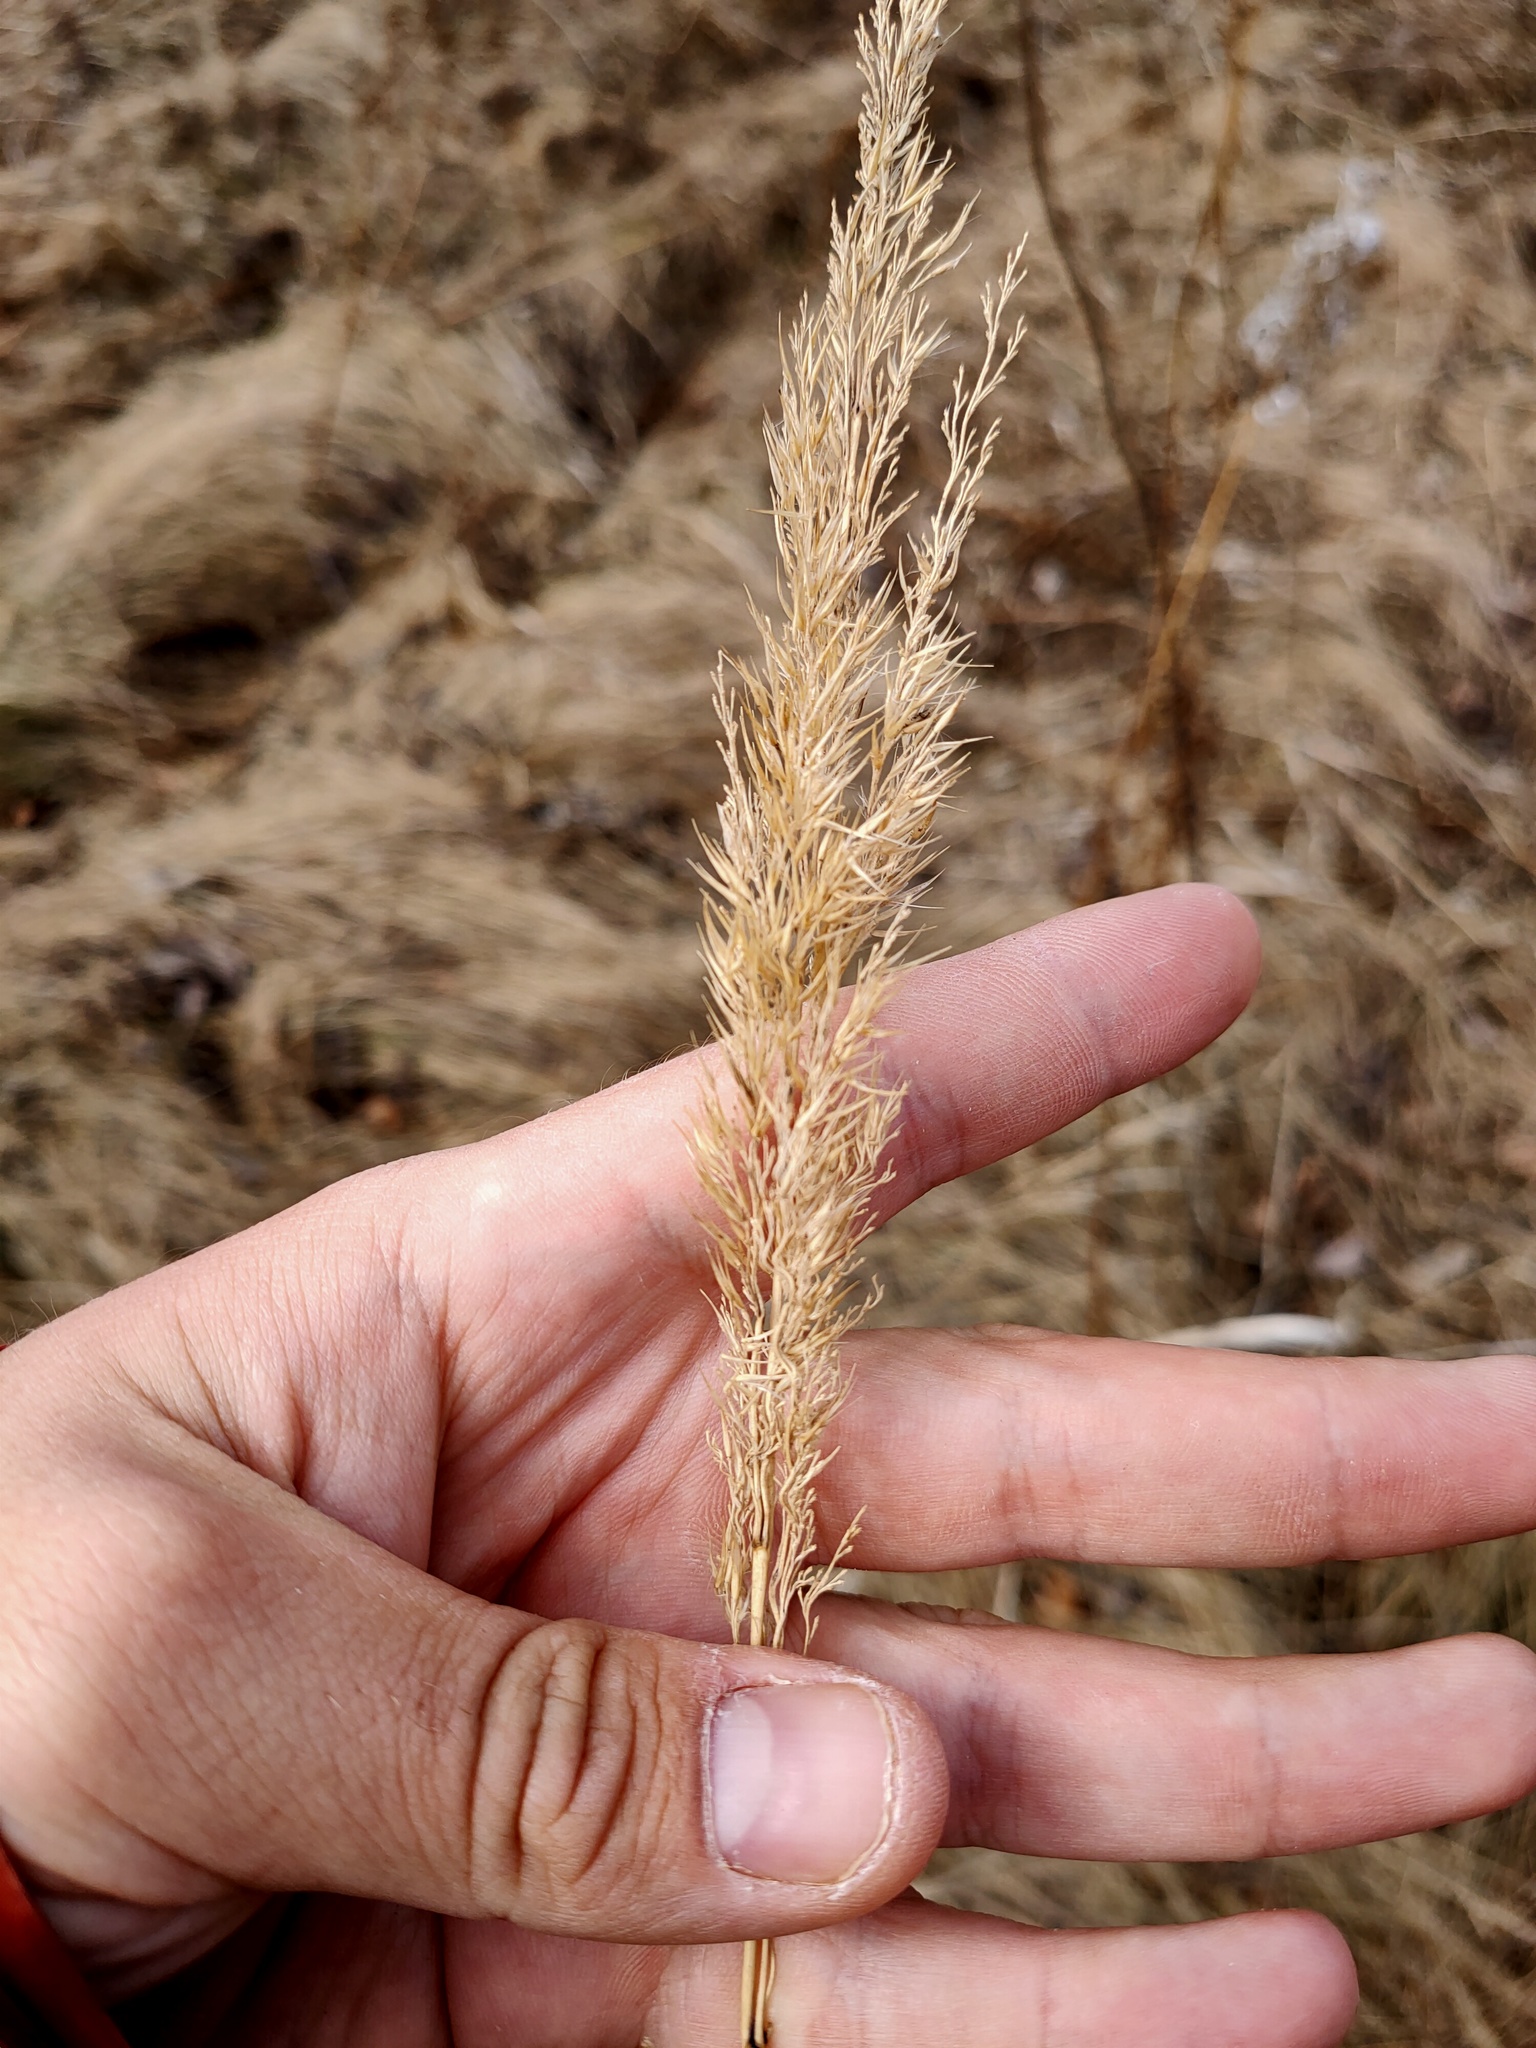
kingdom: Plantae
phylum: Tracheophyta
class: Liliopsida
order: Poales
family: Poaceae
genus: Calamagrostis
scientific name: Calamagrostis epigejos
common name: Wood small-reed
